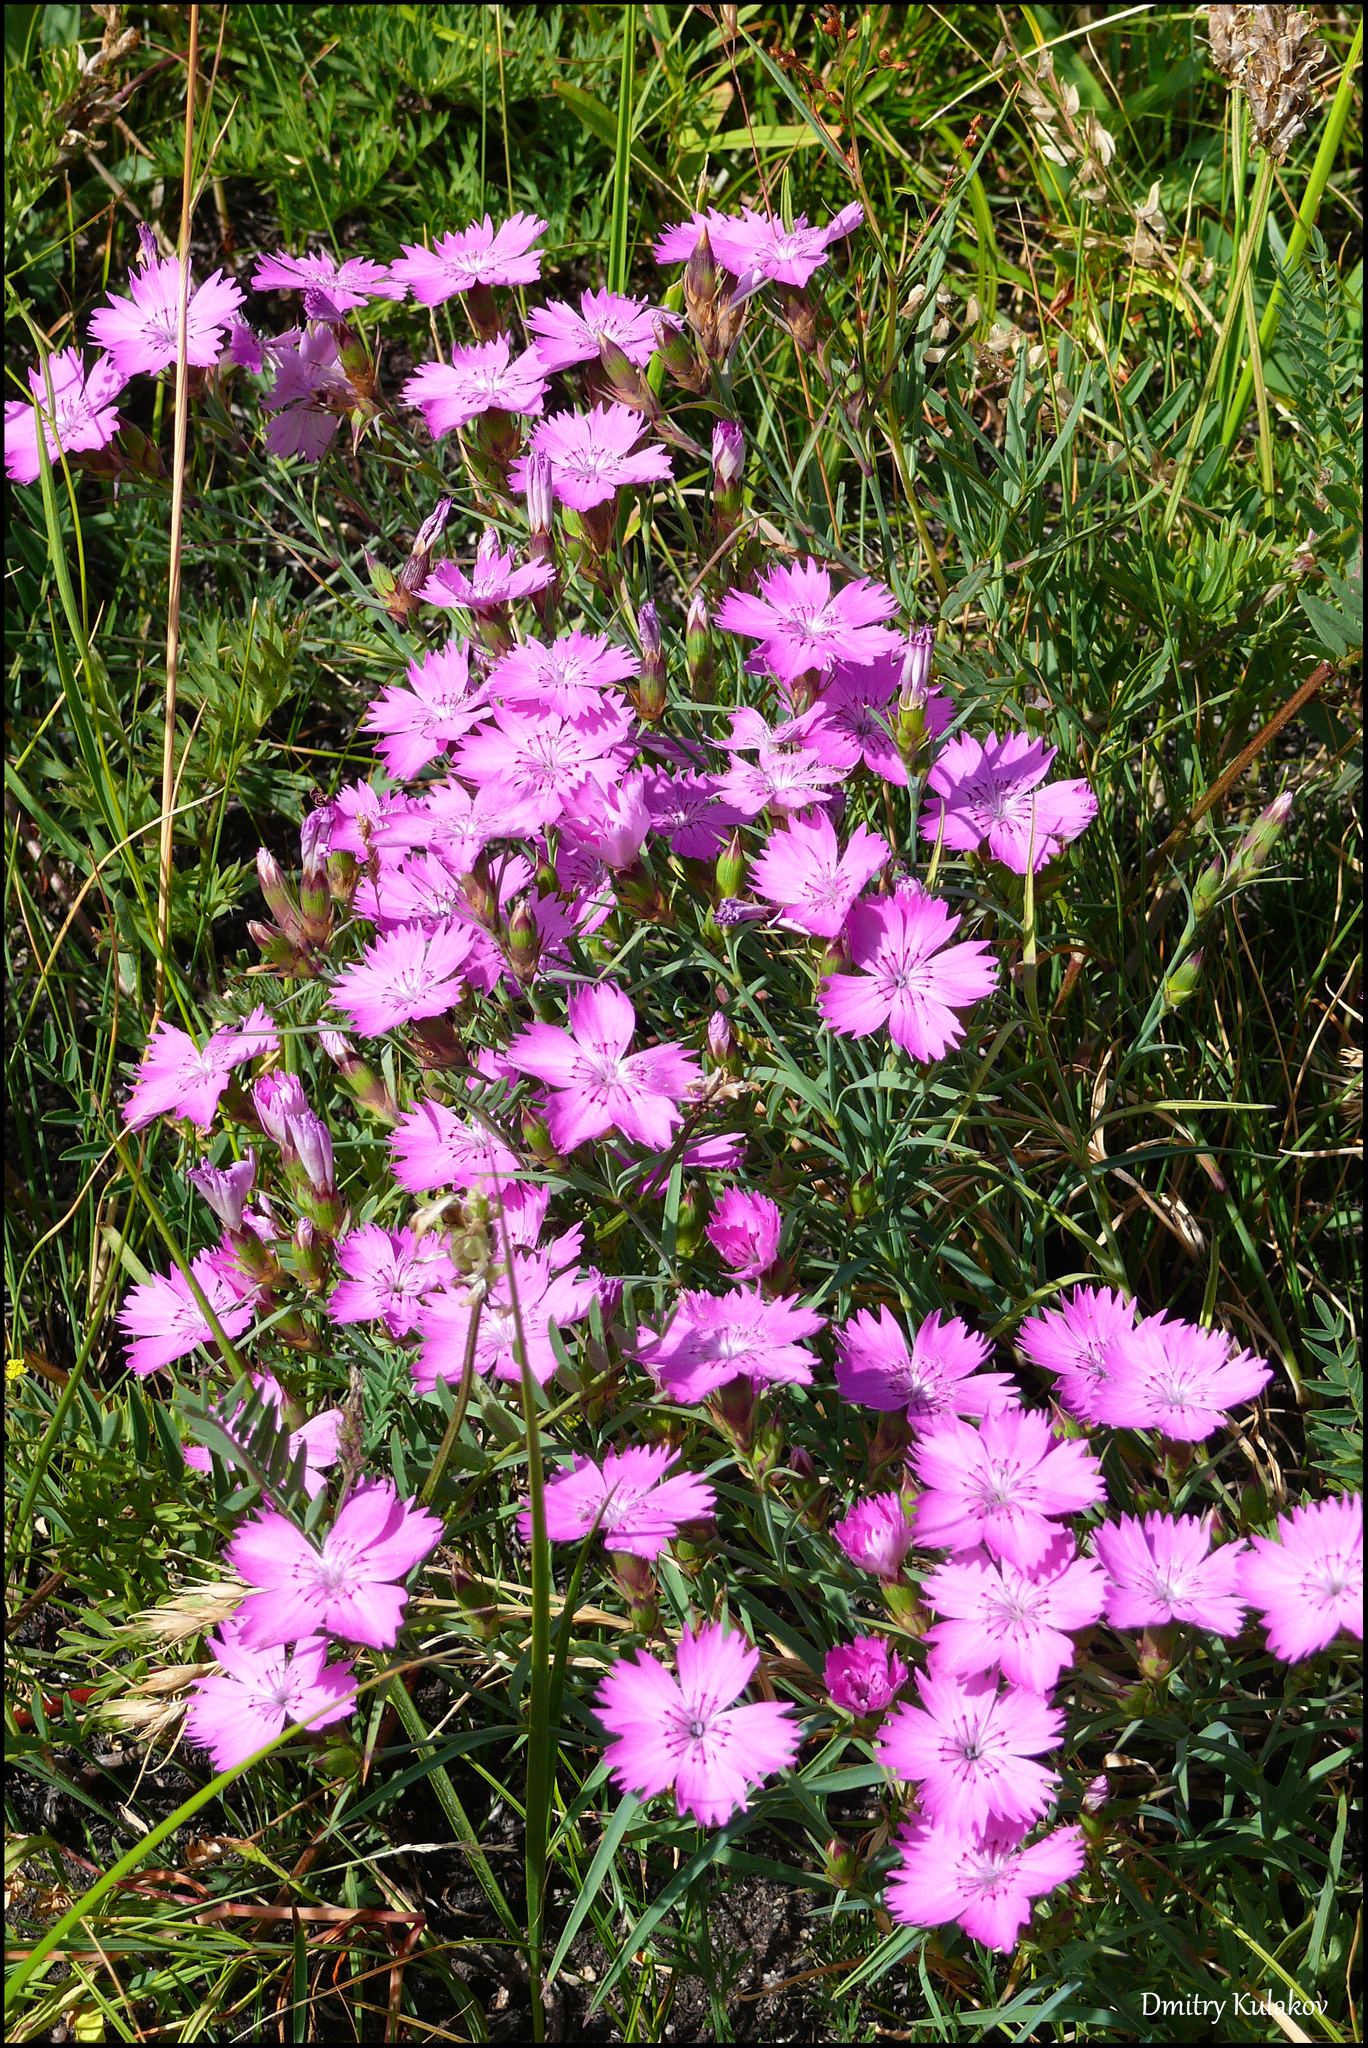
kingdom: Plantae
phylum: Tracheophyta
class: Magnoliopsida
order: Caryophyllales
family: Caryophyllaceae
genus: Dianthus
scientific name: Dianthus chinensis
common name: Rainbow pink
